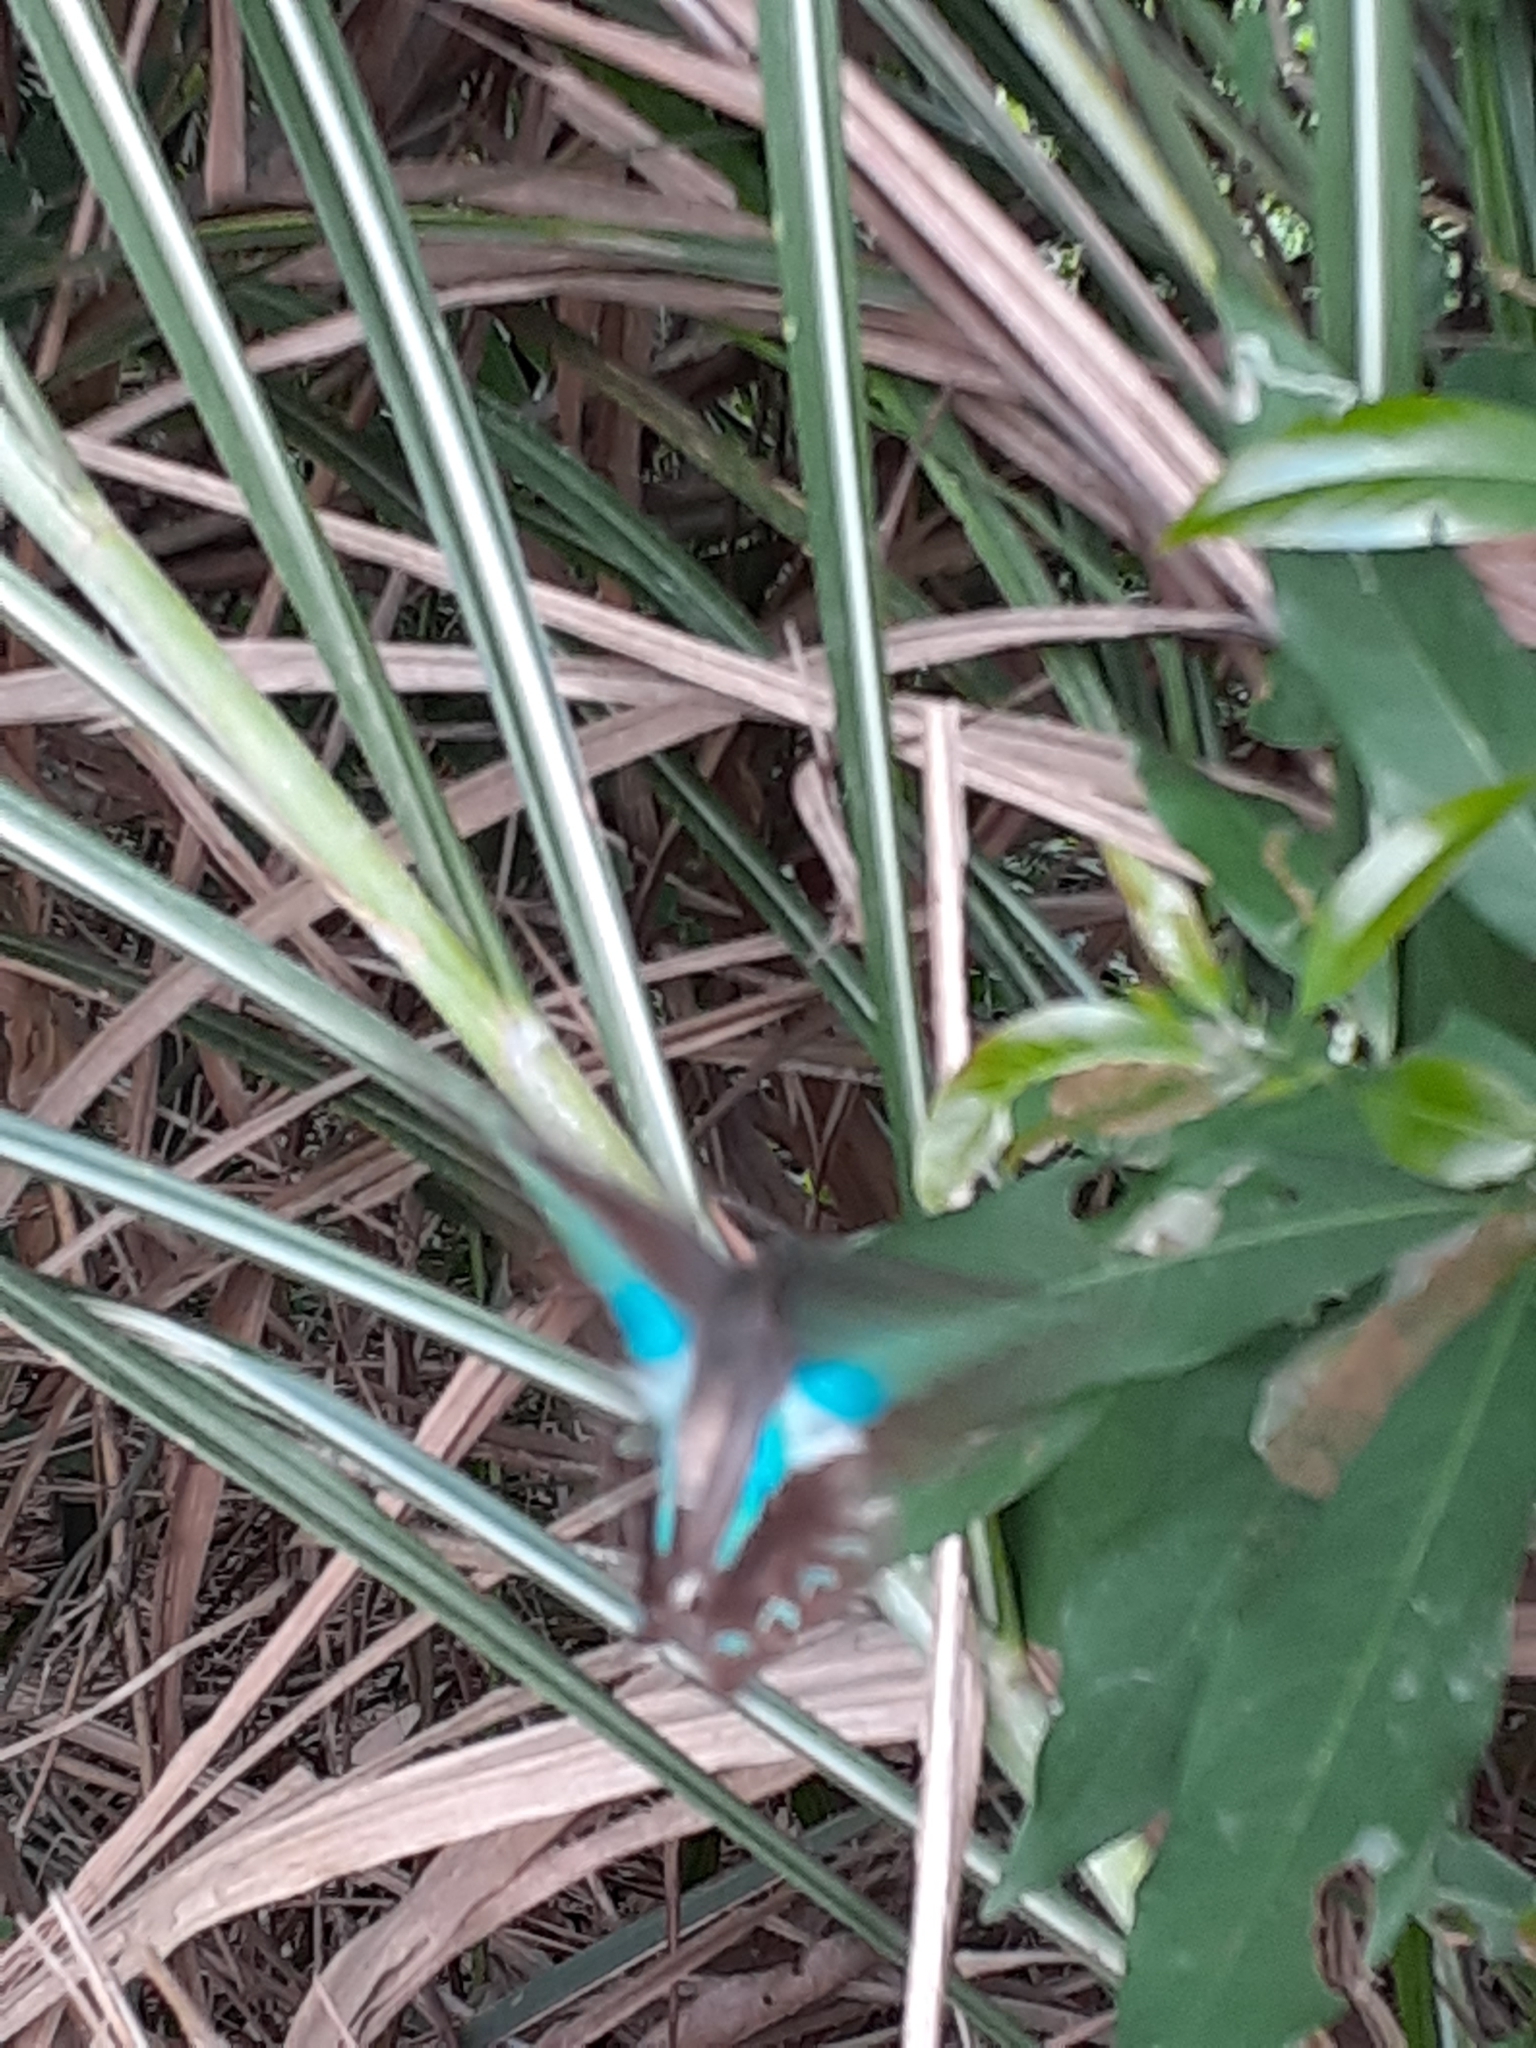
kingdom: Fungi
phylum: Ascomycota
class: Sordariomycetes
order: Microascales
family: Microascaceae
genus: Graphium
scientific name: Graphium sarpedon
